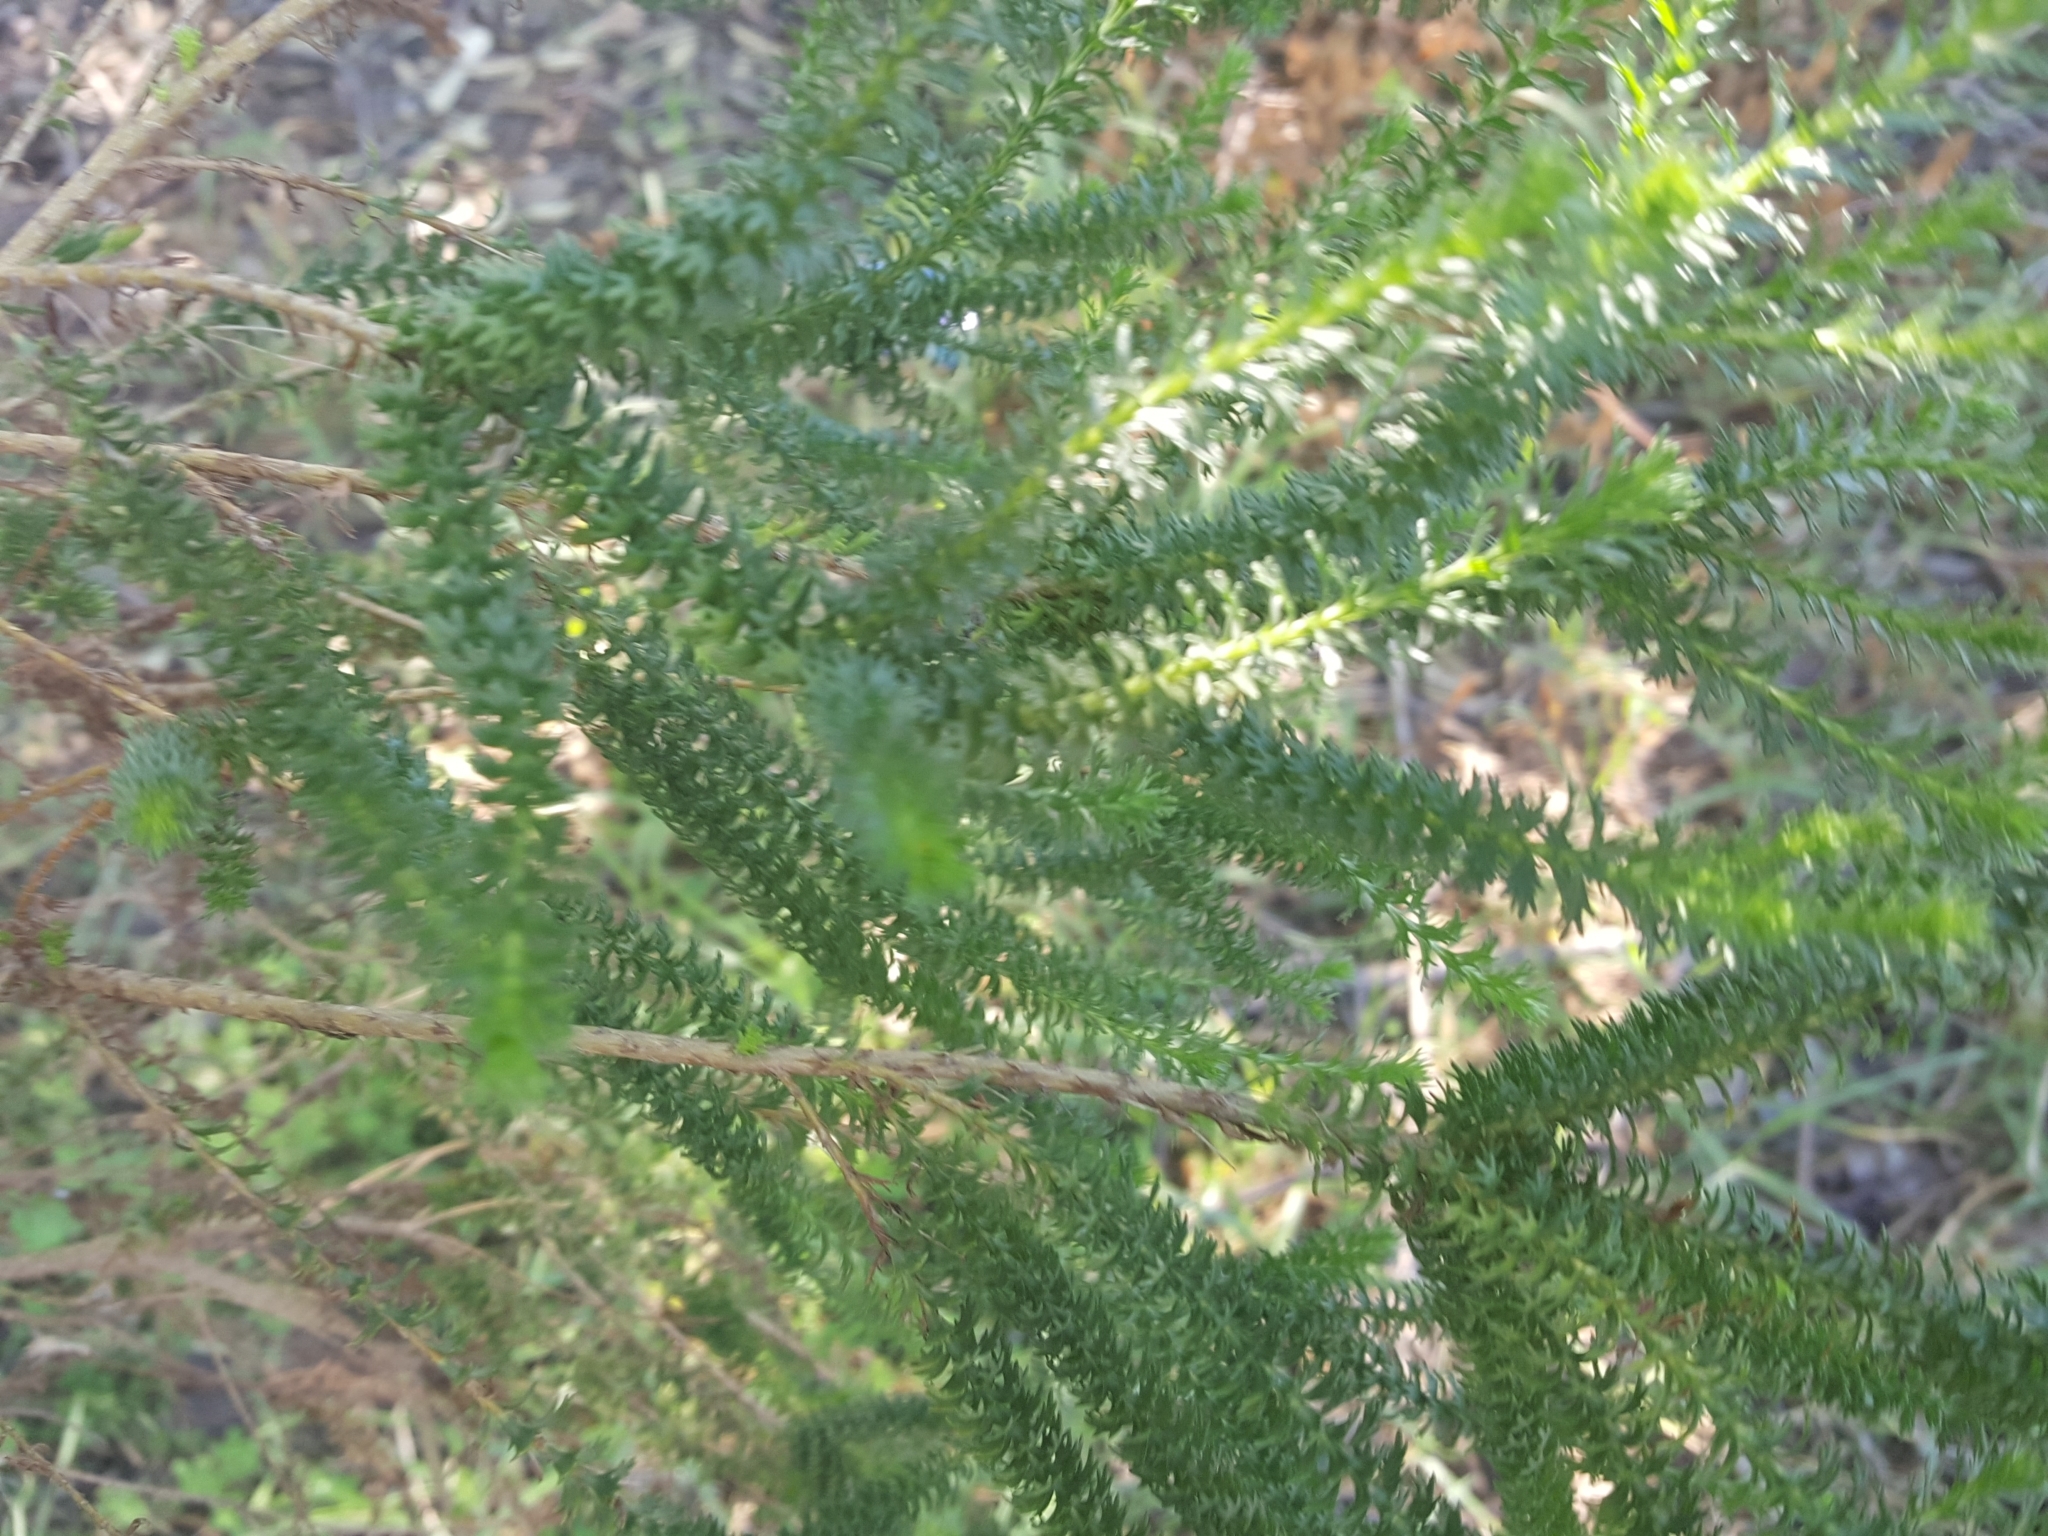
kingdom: Plantae
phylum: Tracheophyta
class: Magnoliopsida
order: Asterales
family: Asteraceae
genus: Euryops
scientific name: Euryops virgineus
